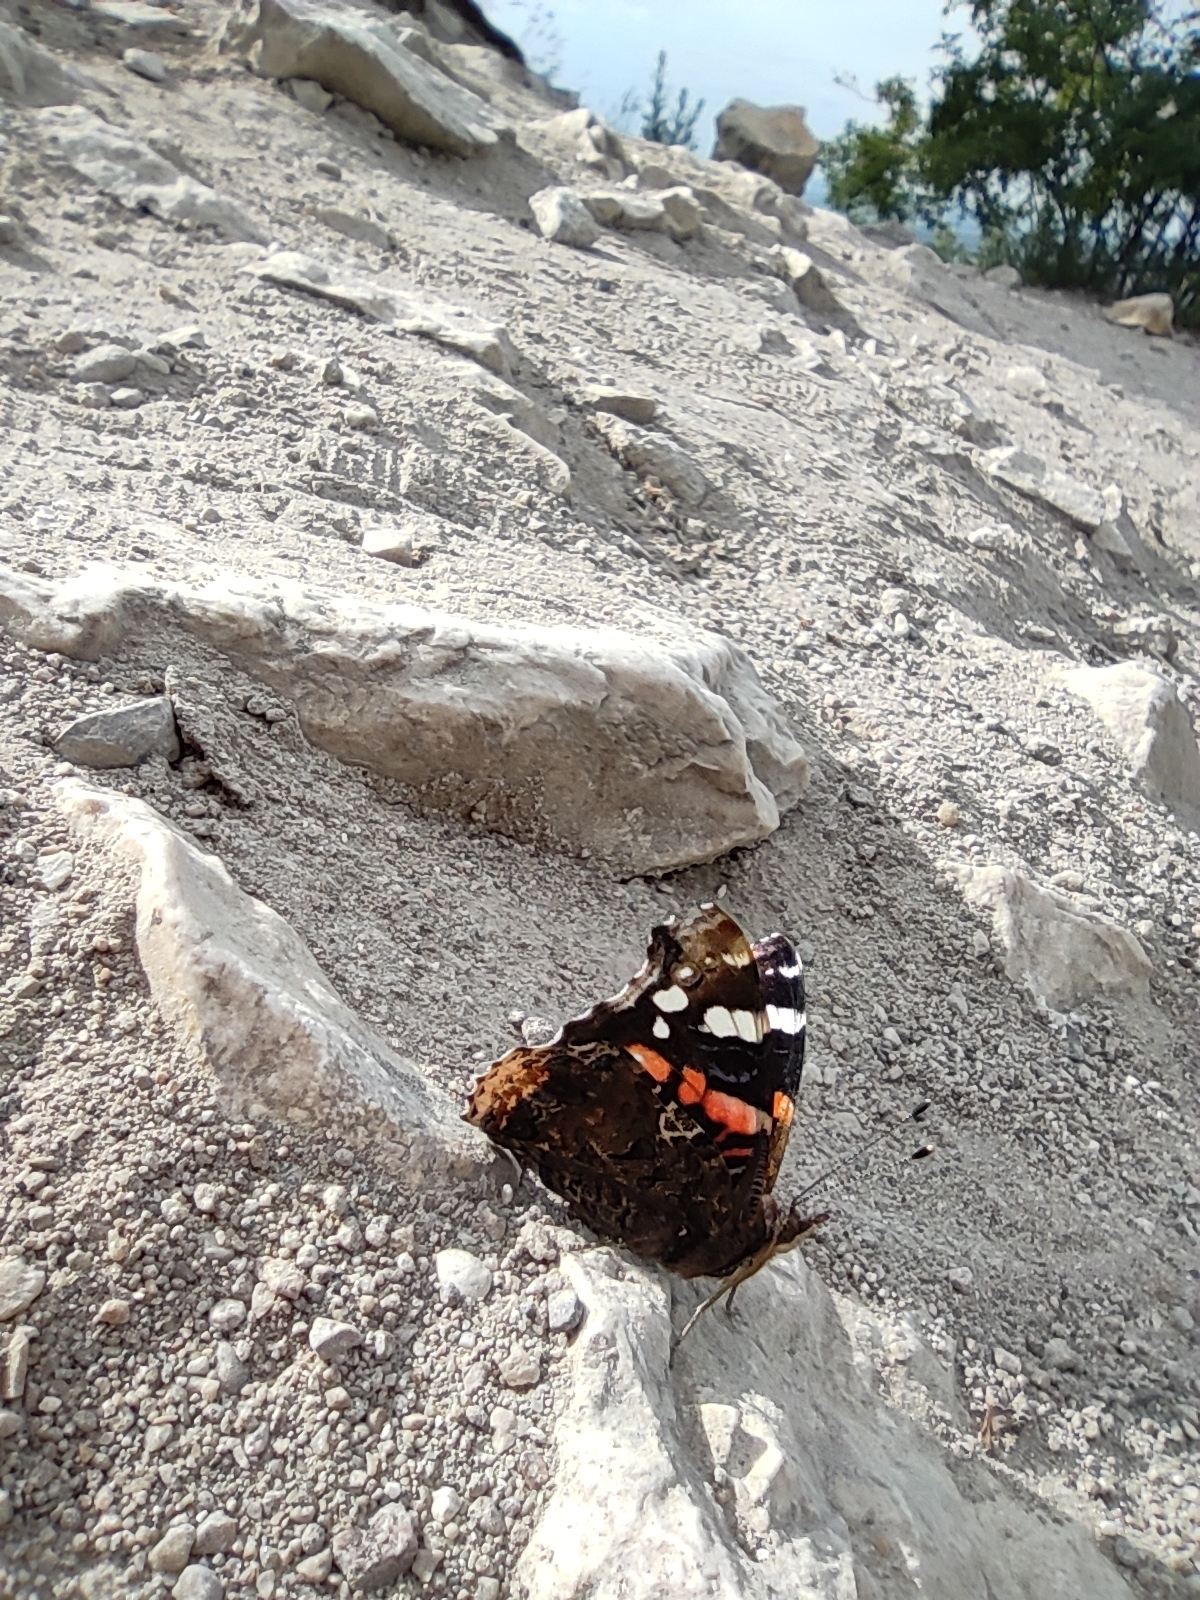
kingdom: Animalia
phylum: Arthropoda
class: Insecta
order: Lepidoptera
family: Nymphalidae
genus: Vanessa
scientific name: Vanessa atalanta
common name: Red admiral
